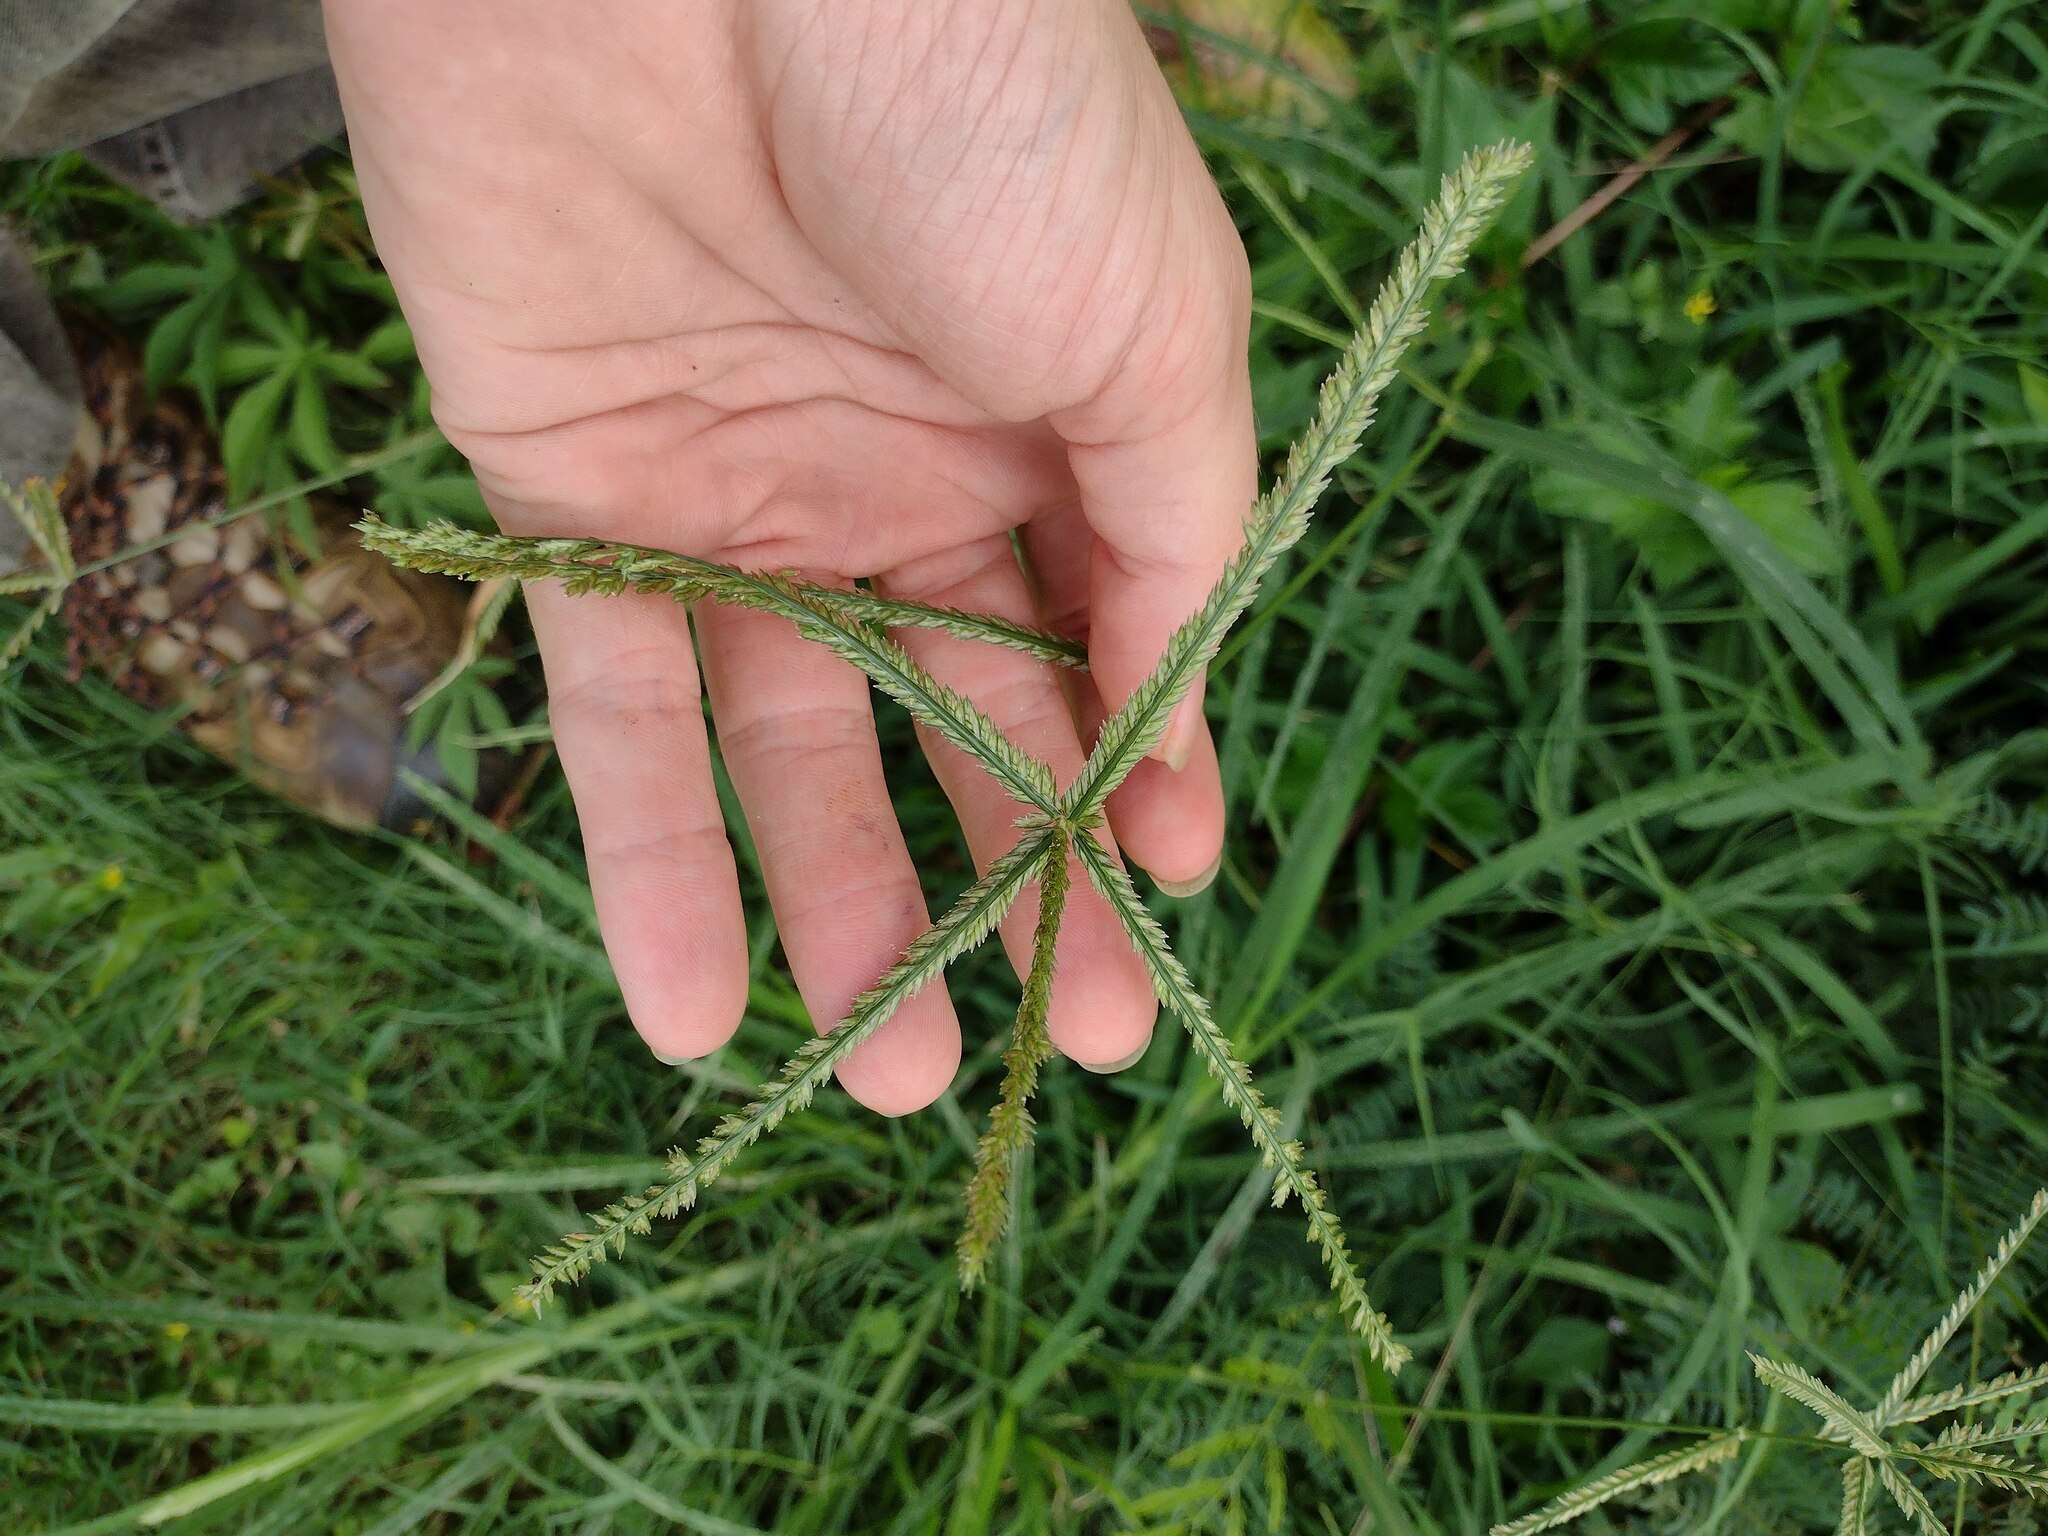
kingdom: Plantae
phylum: Tracheophyta
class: Liliopsida
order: Poales
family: Poaceae
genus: Eleusine
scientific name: Eleusine indica
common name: Yard-grass
